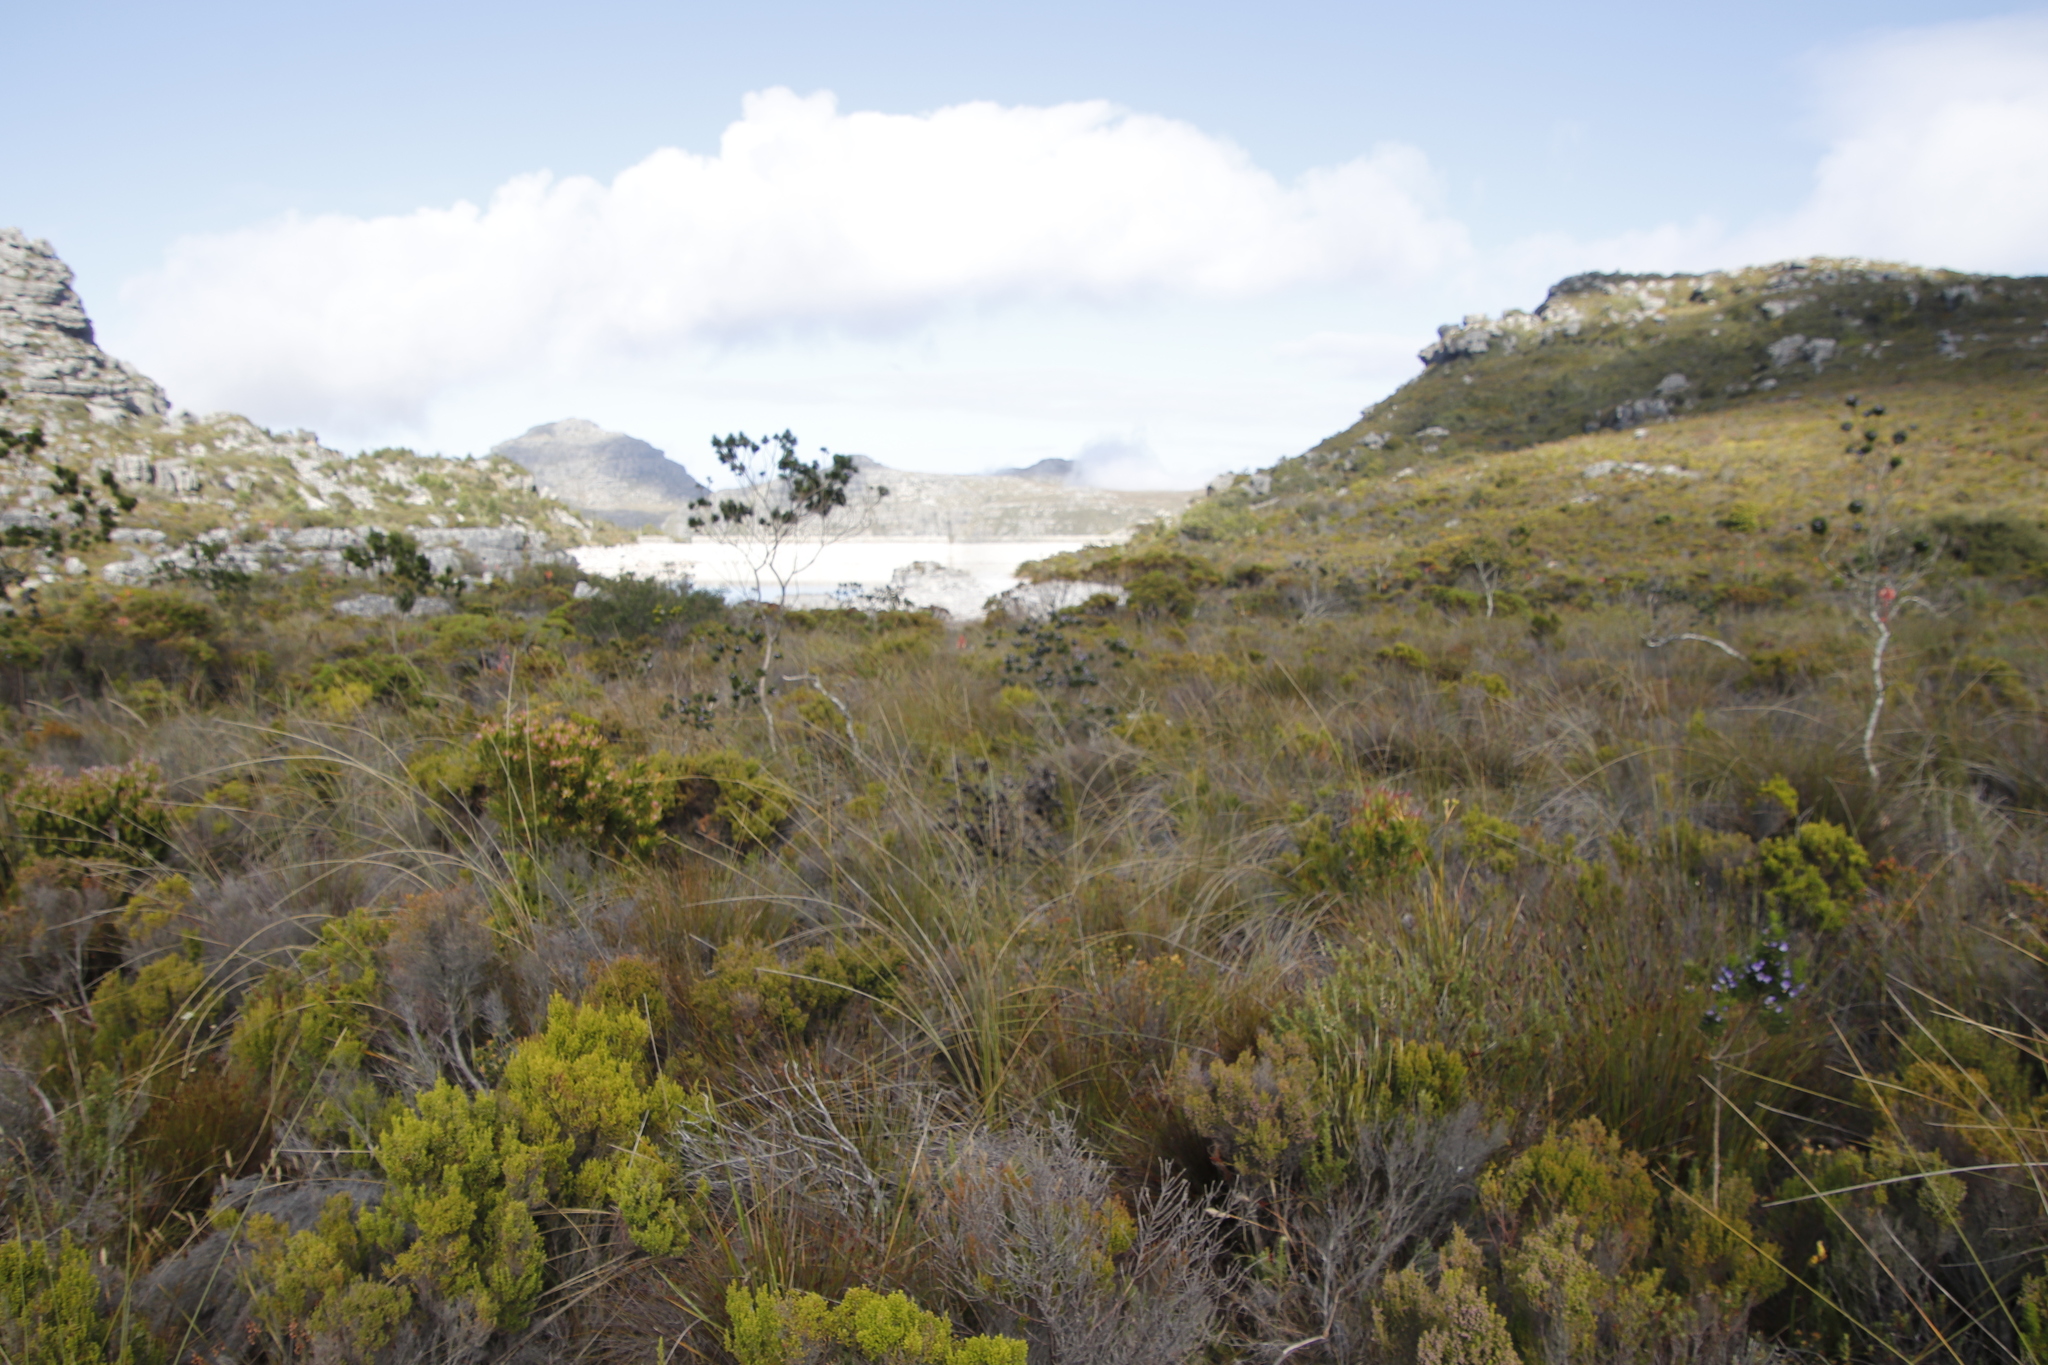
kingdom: Plantae
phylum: Tracheophyta
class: Magnoliopsida
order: Fabales
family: Fabaceae
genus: Psoralea
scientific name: Psoralea pinnata
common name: African scurfpea
